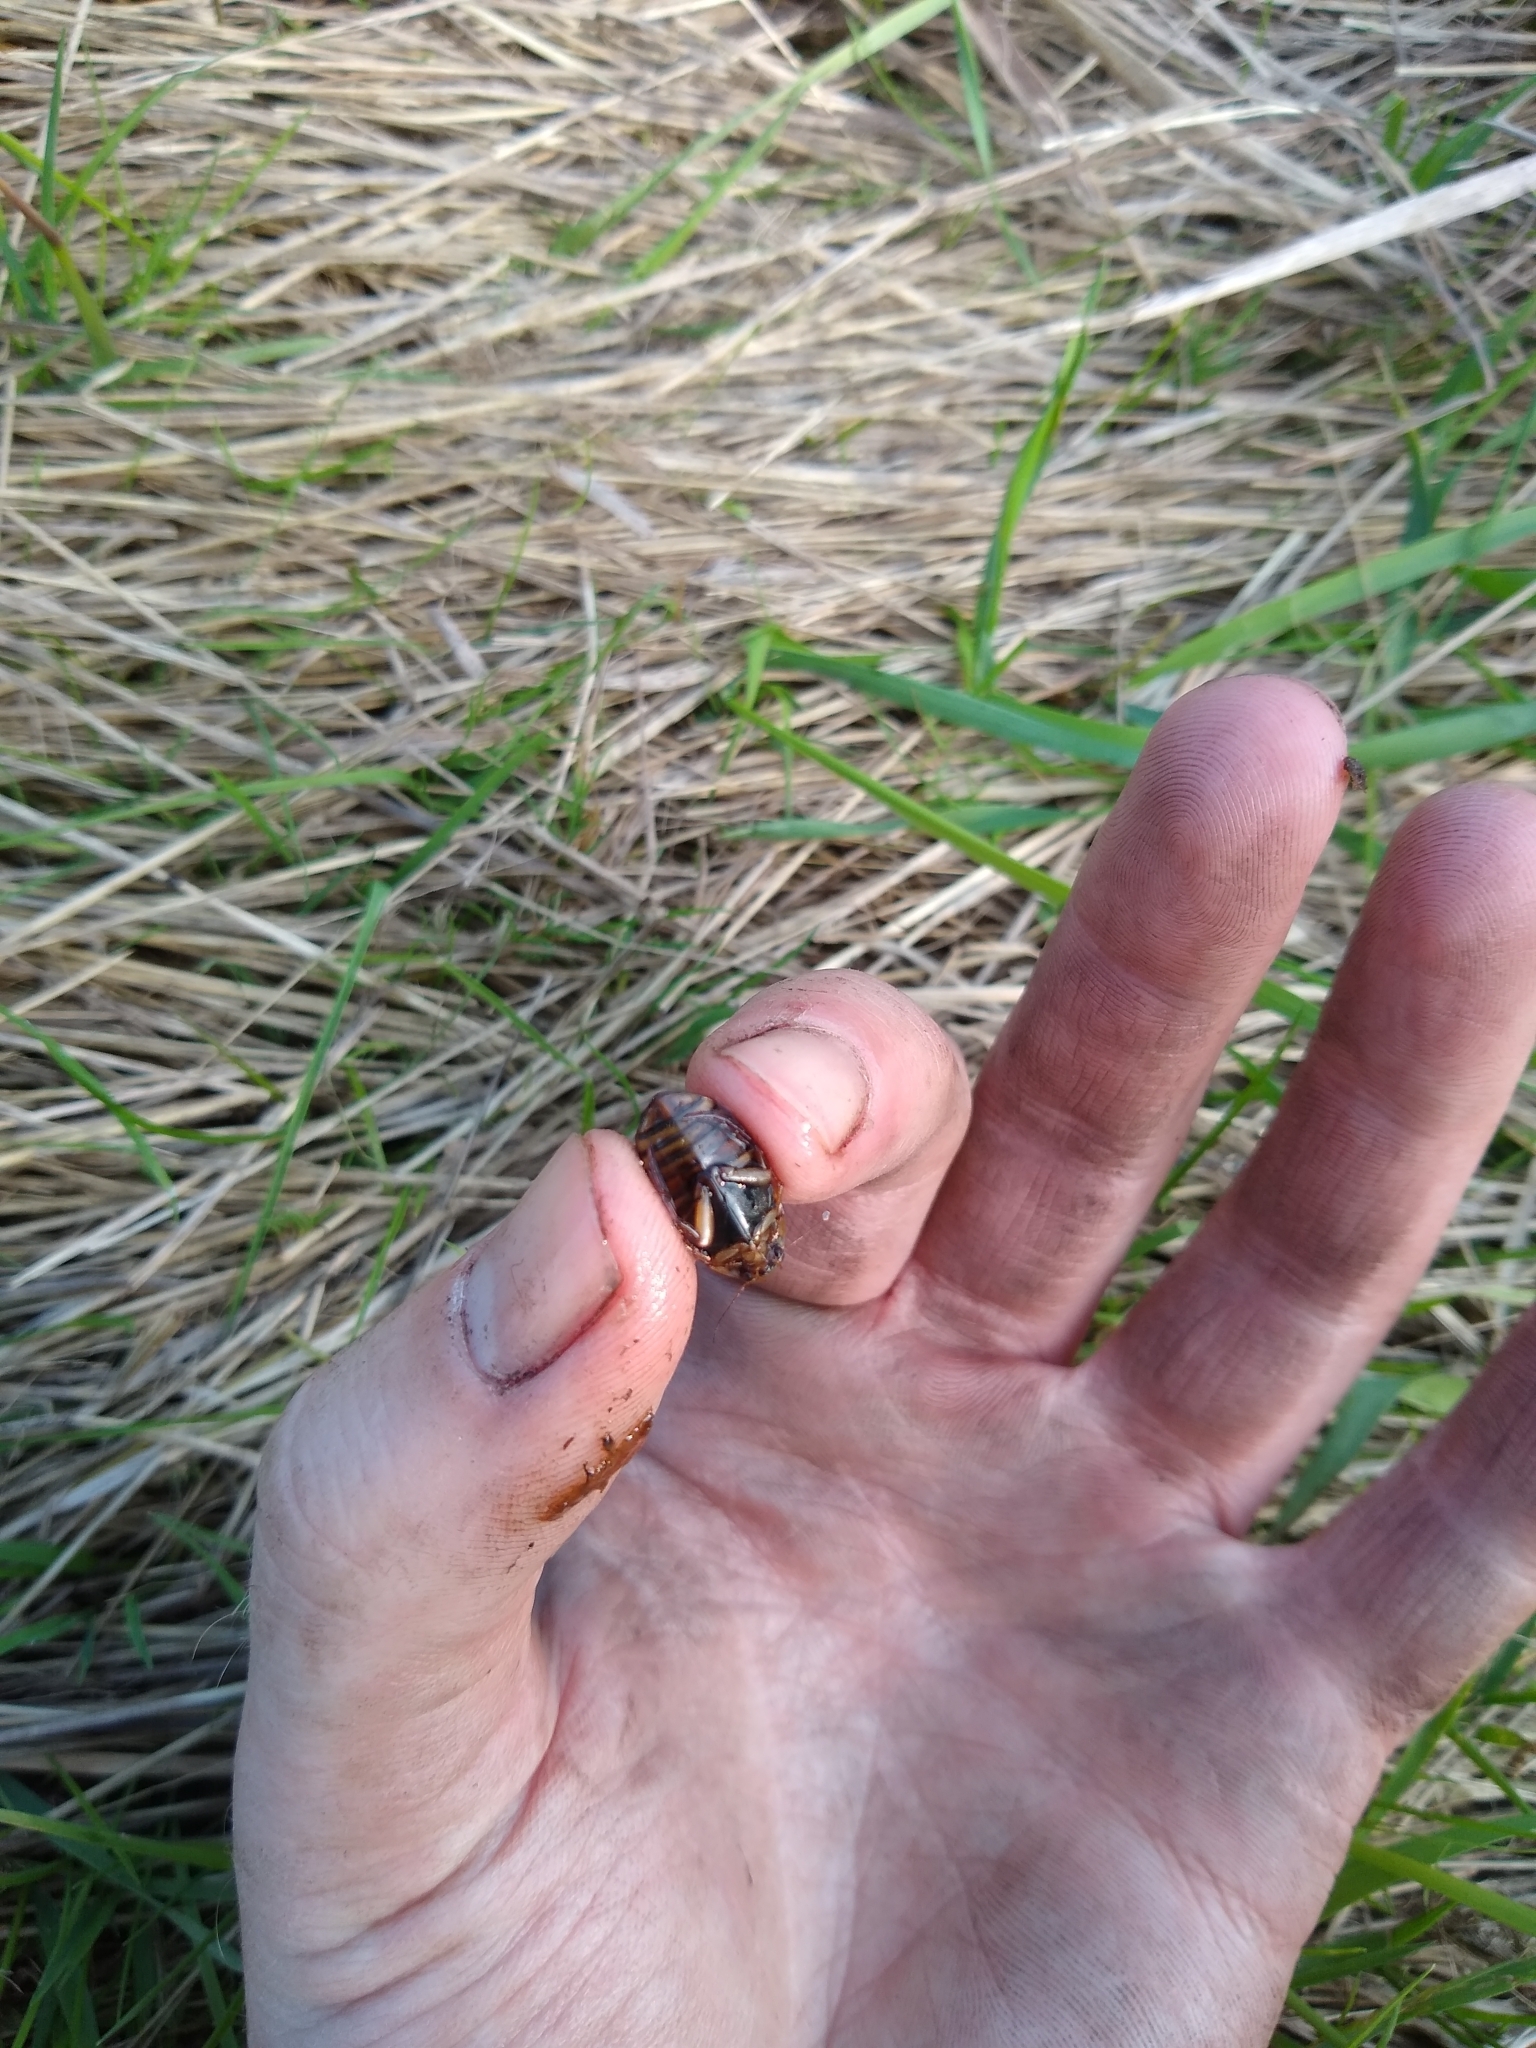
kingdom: Animalia
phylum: Arthropoda
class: Insecta
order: Coleoptera
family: Dytiscidae
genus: Acilius
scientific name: Acilius canaliculatus
